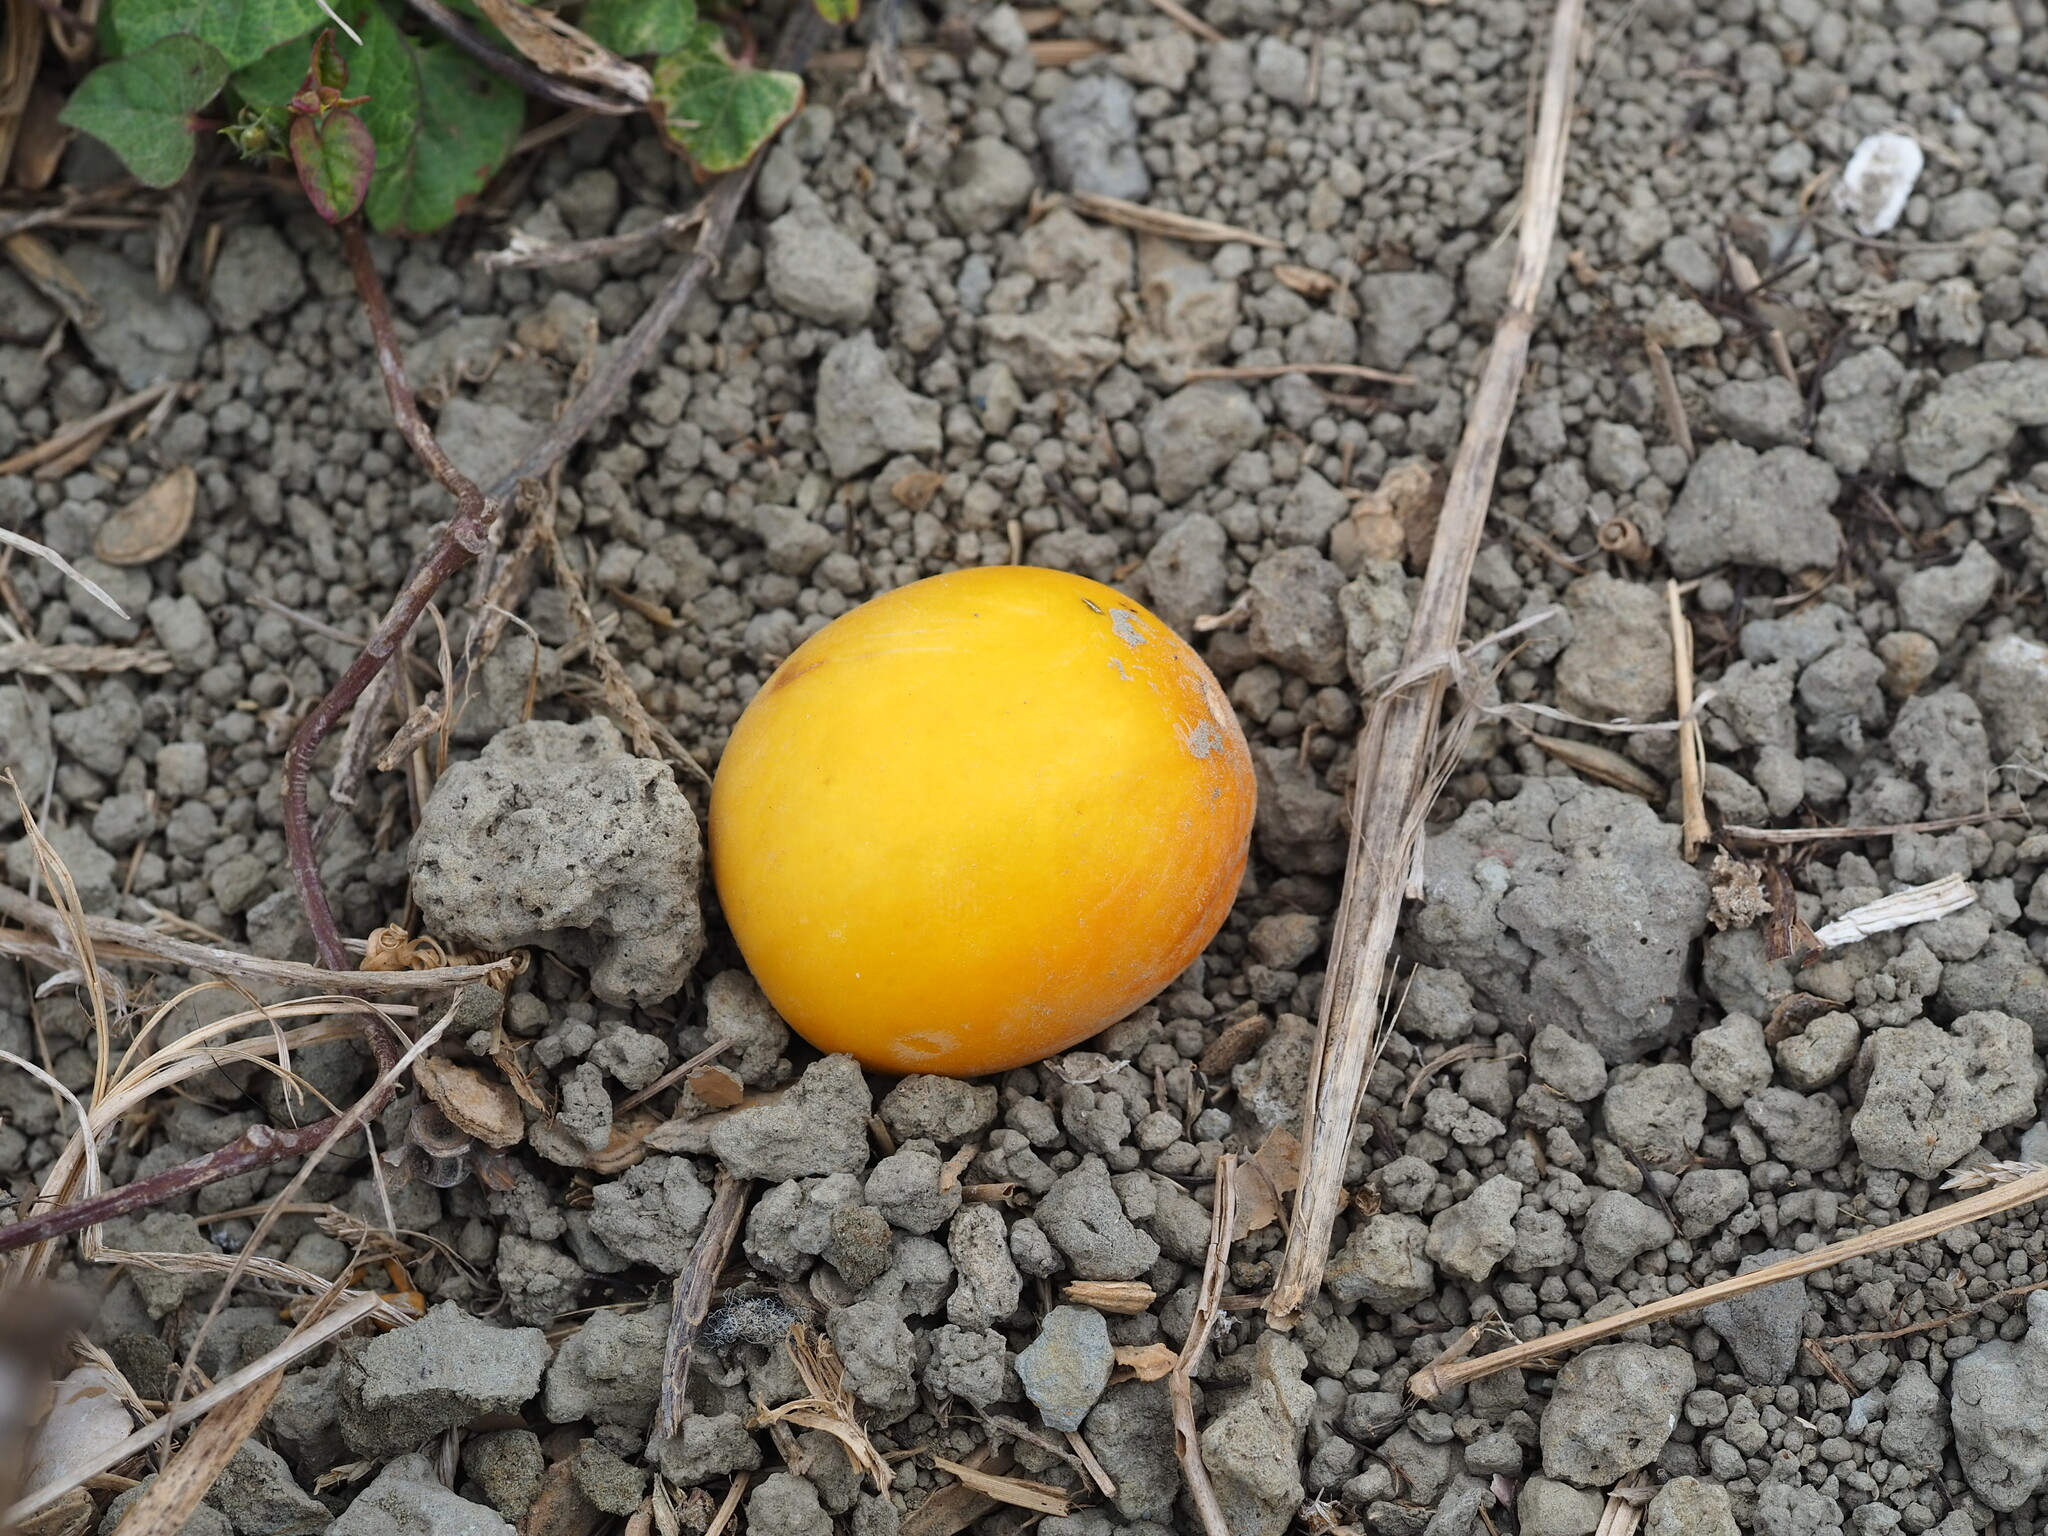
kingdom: Plantae
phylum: Tracheophyta
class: Magnoliopsida
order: Cucurbitales
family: Cucurbitaceae
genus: Cucumis
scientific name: Cucumis melo
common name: Melon
